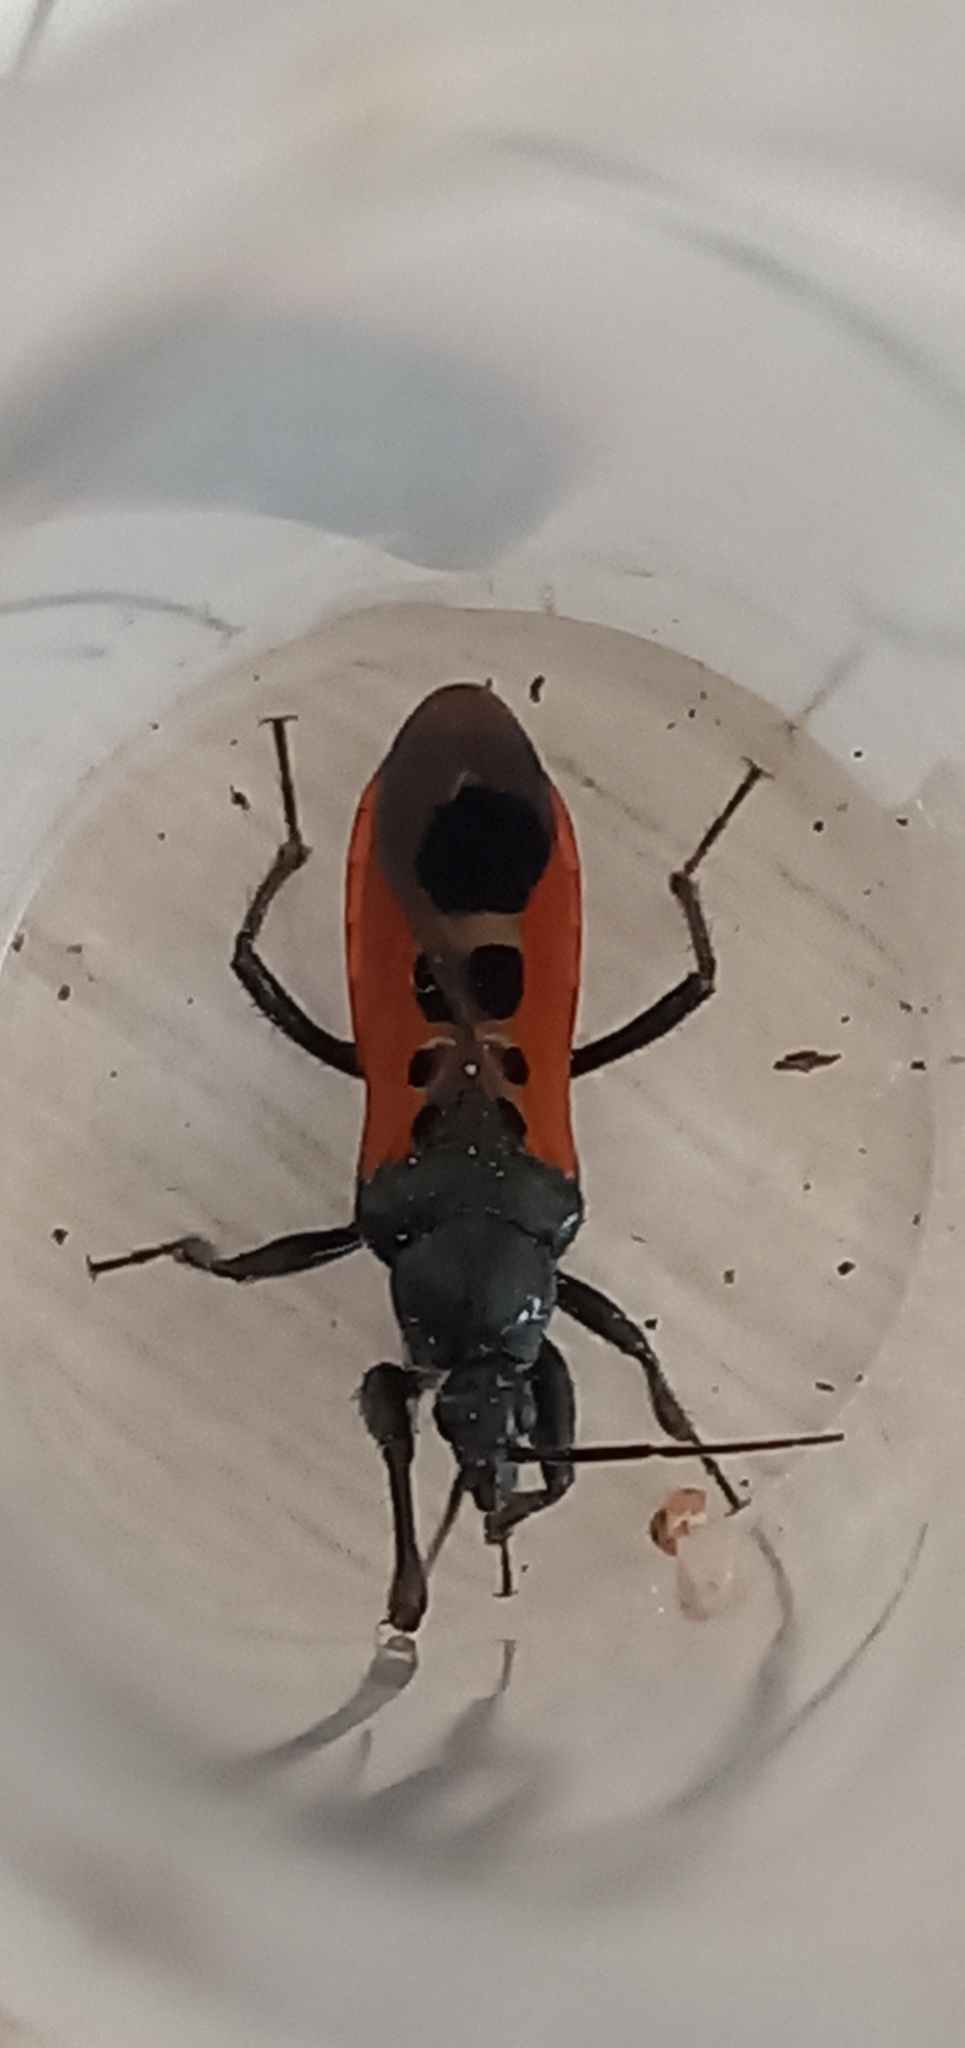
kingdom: Animalia
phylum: Arthropoda
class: Insecta
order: Hemiptera
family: Reduviidae
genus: Peirates
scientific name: Peirates stridulus
